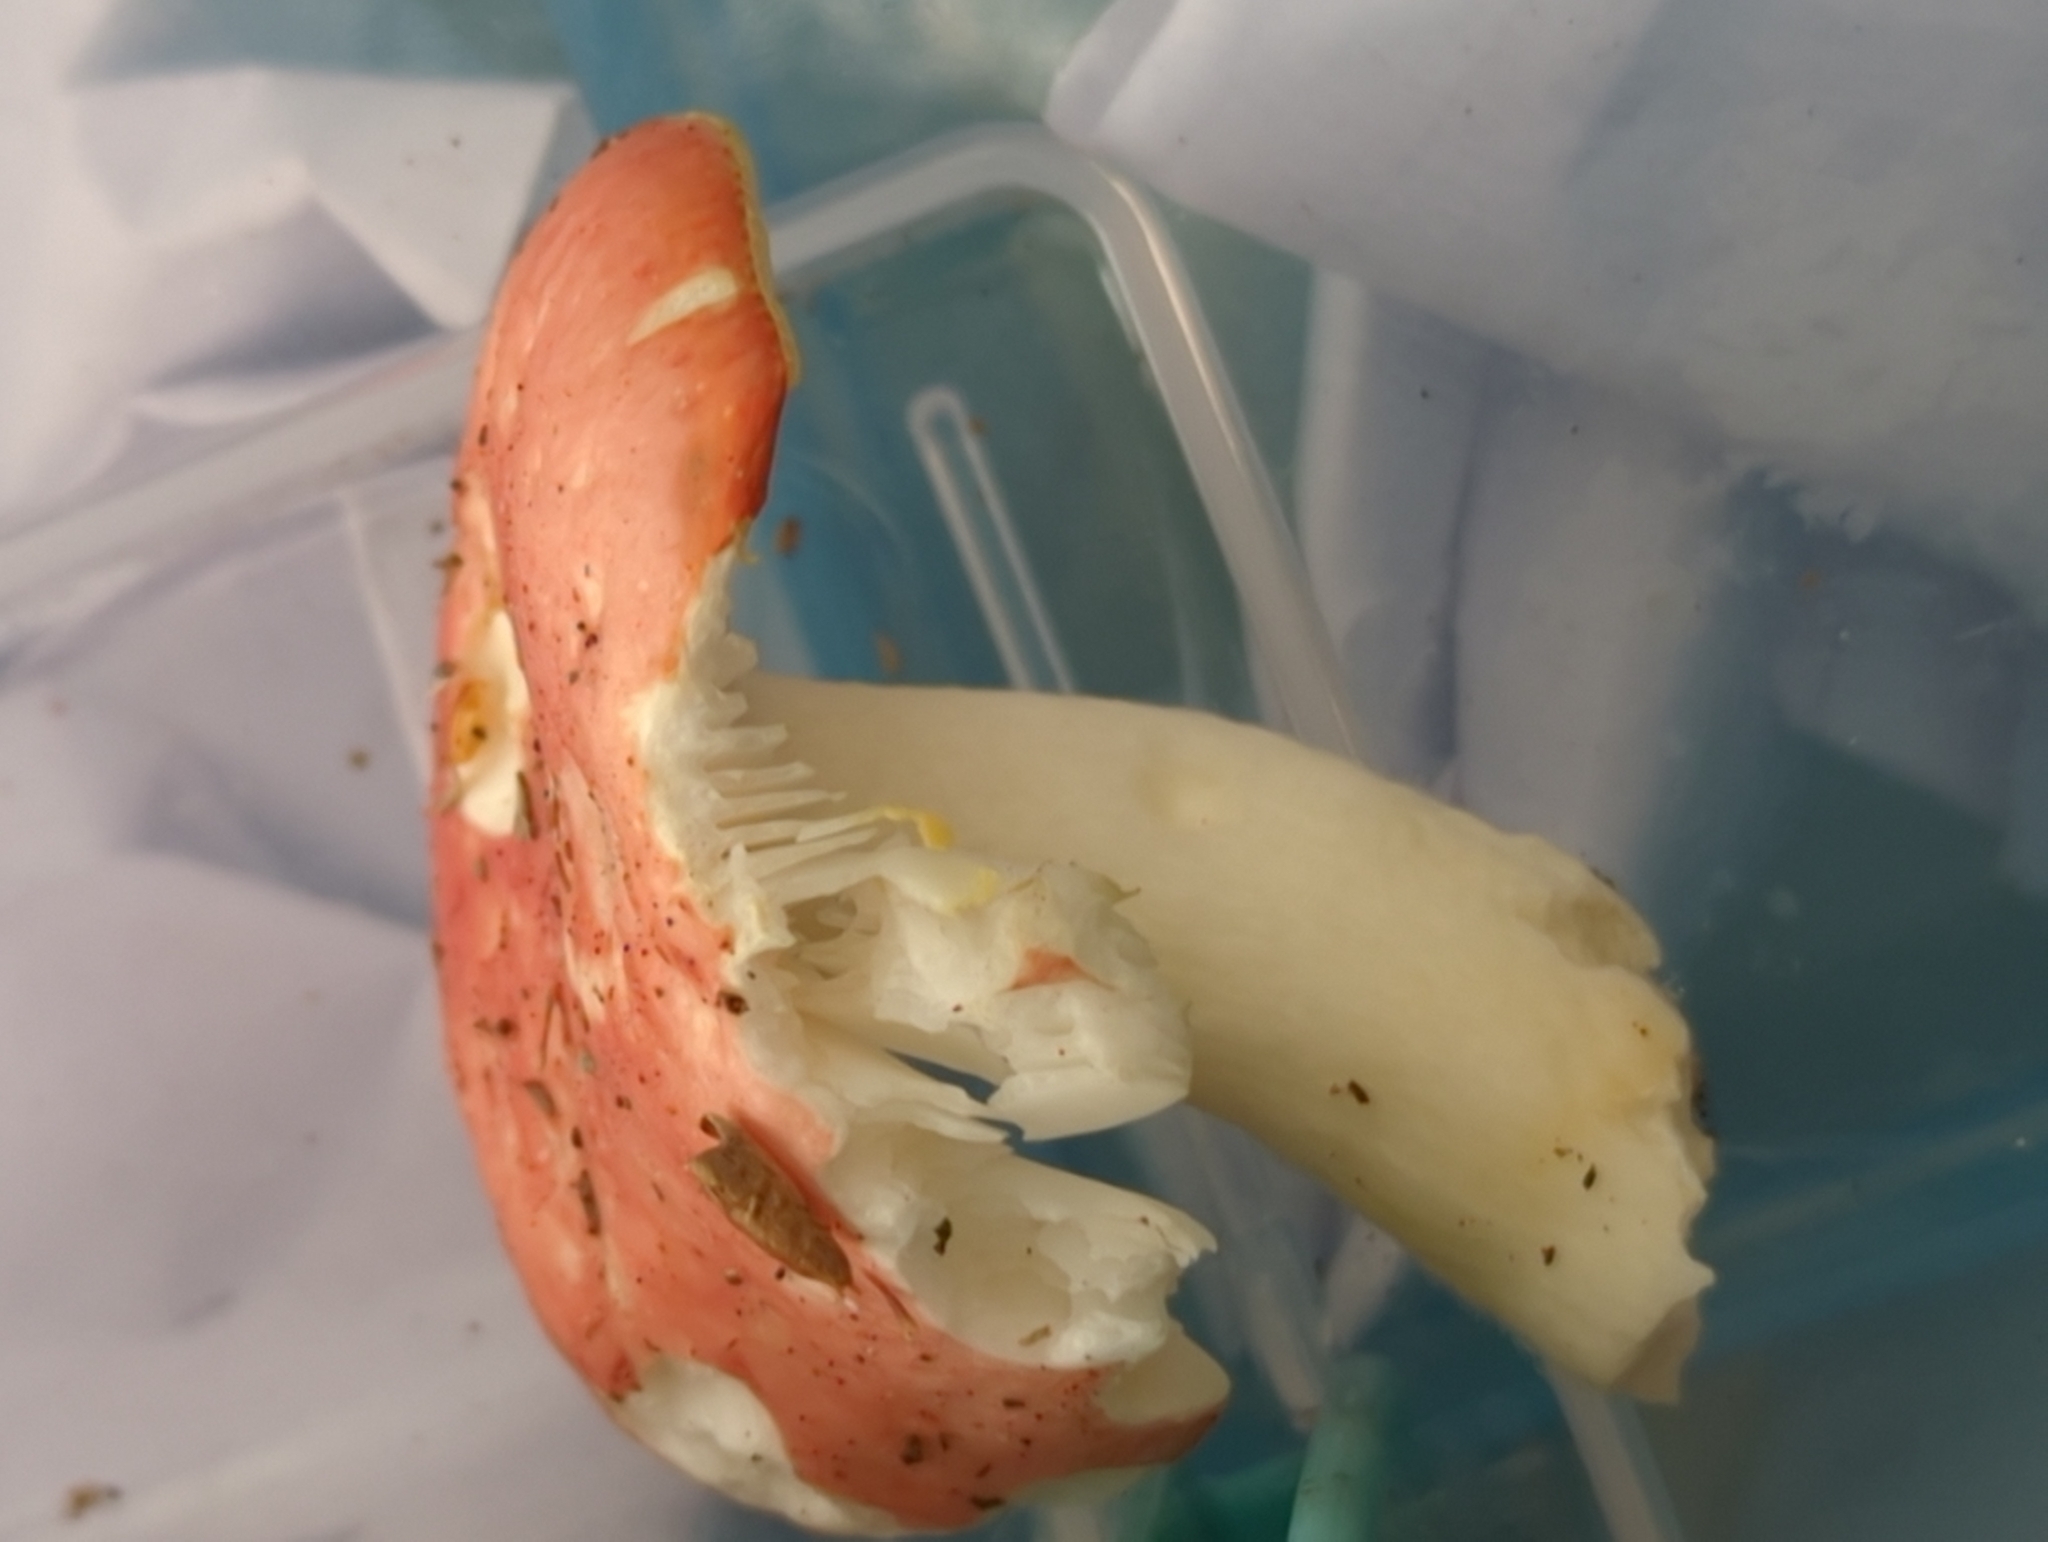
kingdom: Fungi
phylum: Basidiomycota
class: Agaricomycetes
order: Russulales
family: Russulaceae
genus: Russula
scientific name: Russula silvestris
